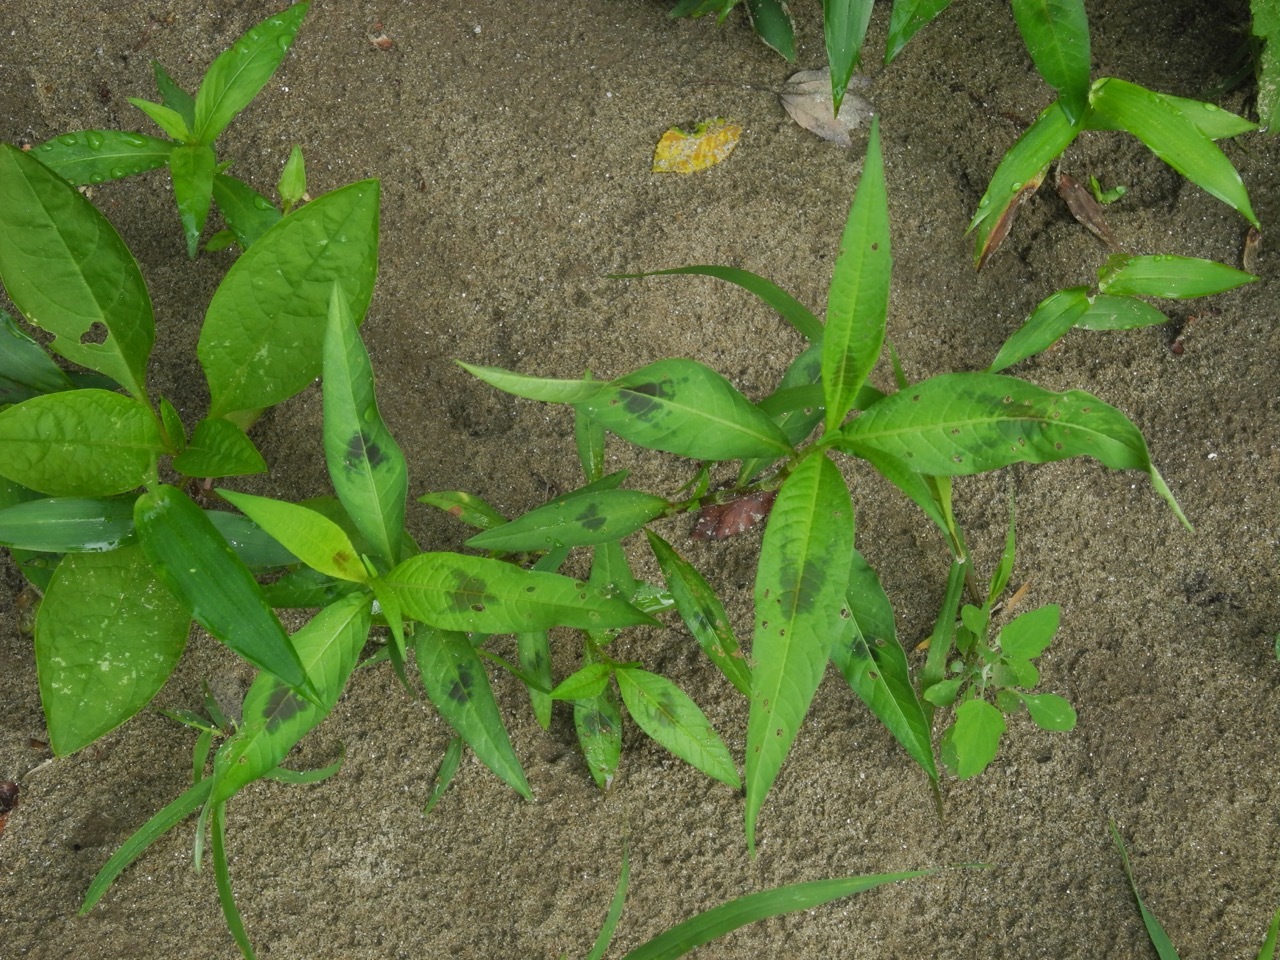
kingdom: Plantae
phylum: Tracheophyta
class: Magnoliopsida
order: Caryophyllales
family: Polygonaceae
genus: Persicaria
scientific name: Persicaria maculosa
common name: Redshank
